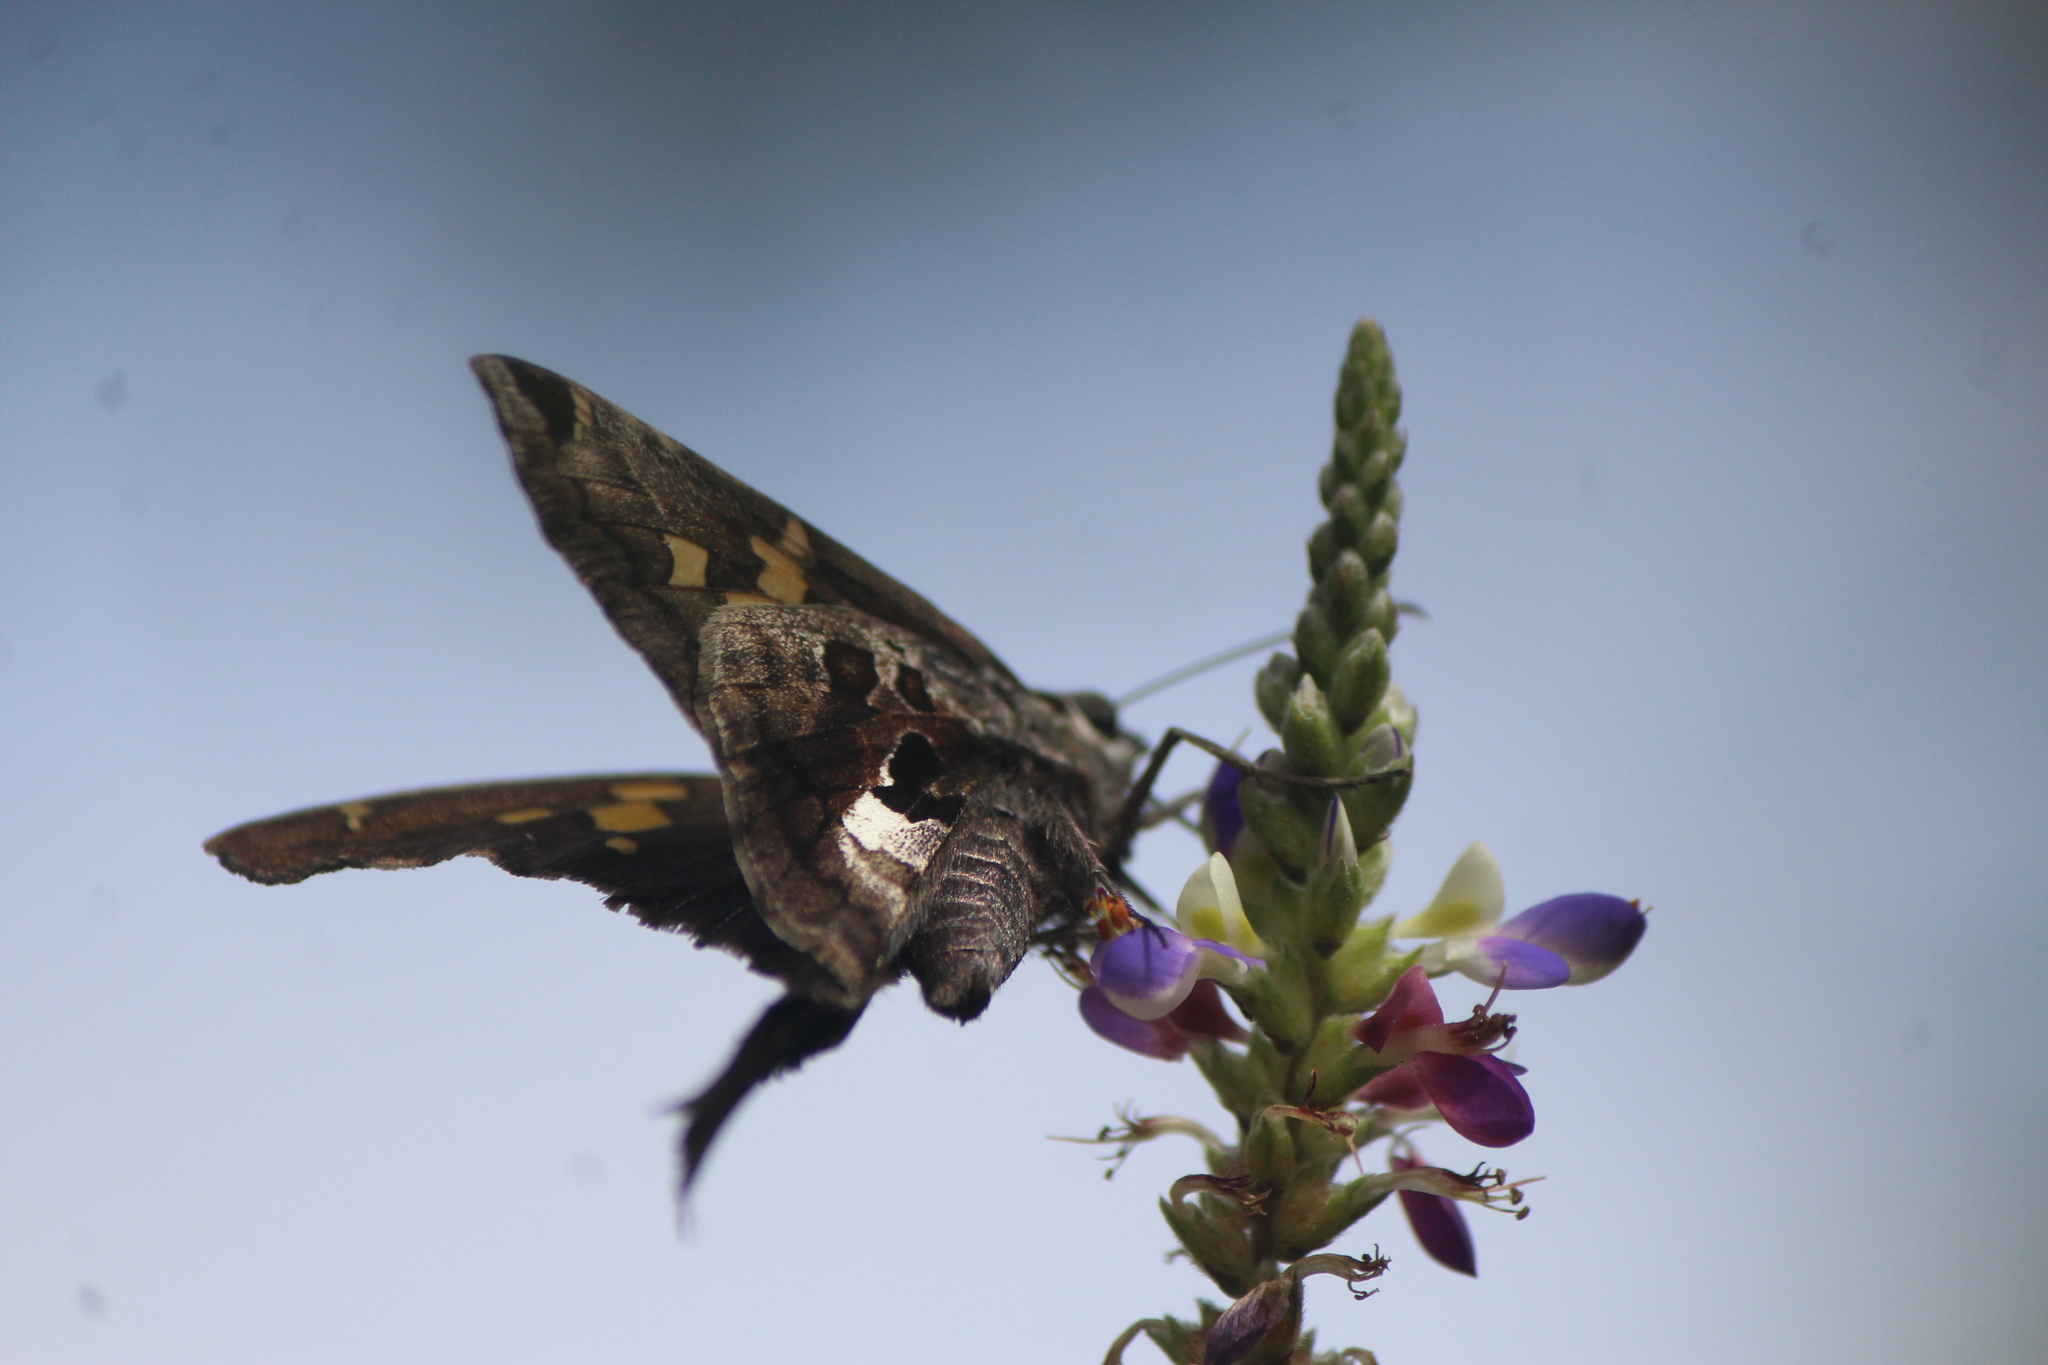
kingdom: Animalia
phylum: Arthropoda
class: Insecta
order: Lepidoptera
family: Hesperiidae
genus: Chioides
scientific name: Chioides zilpa
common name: Zilpa longtail
